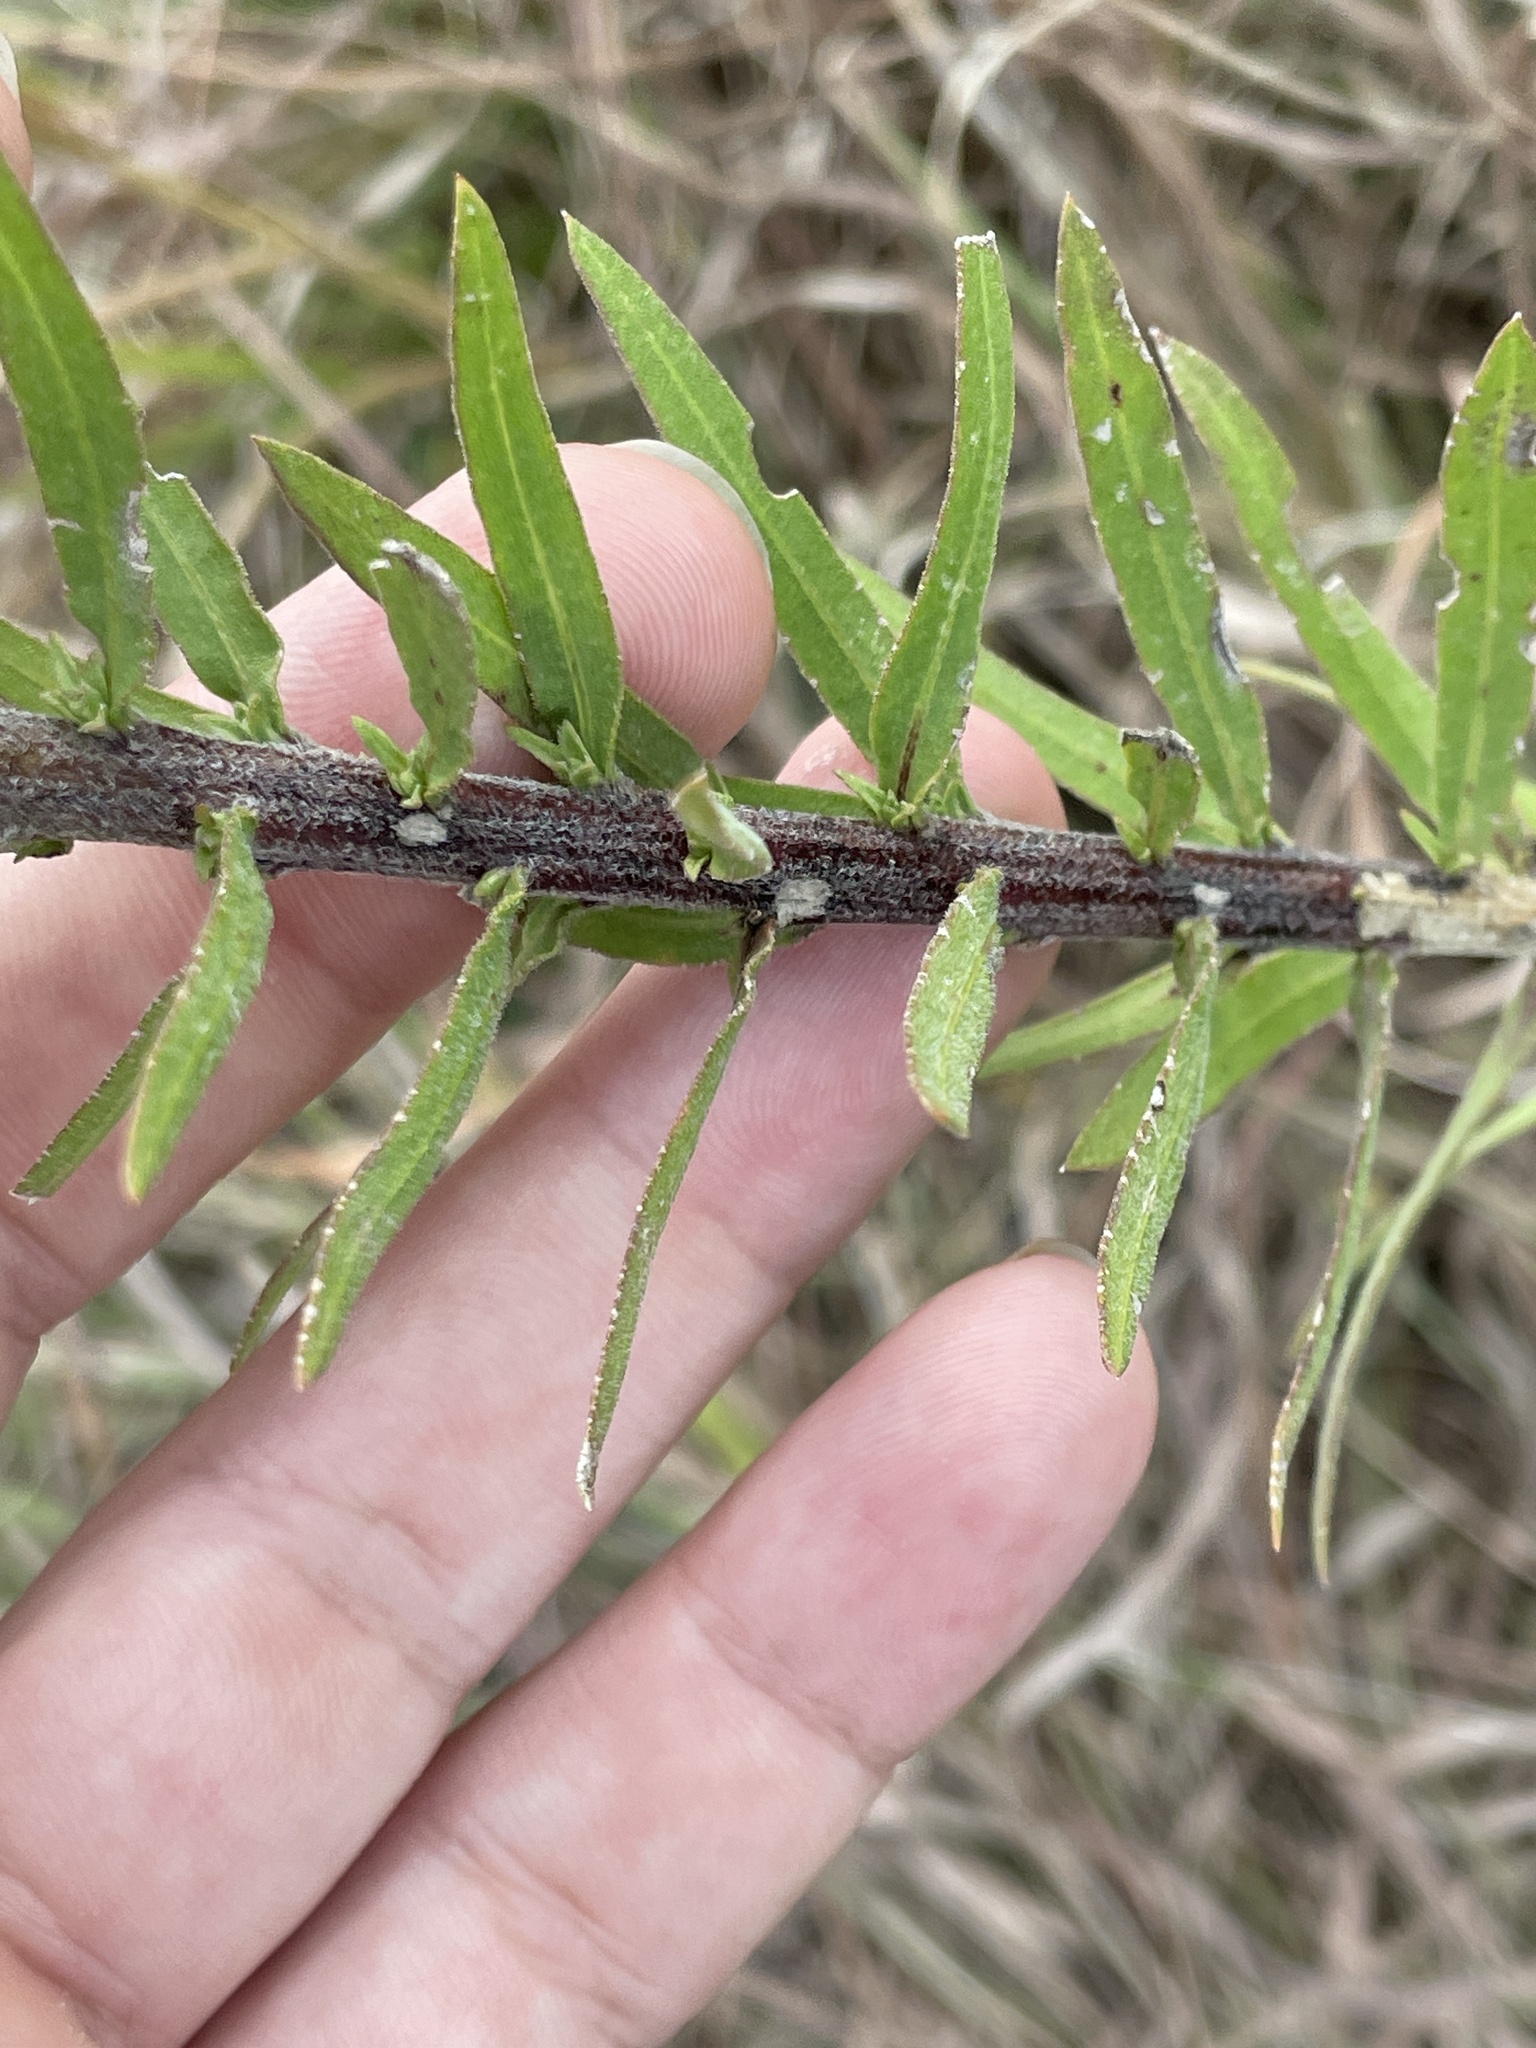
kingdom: Plantae
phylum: Tracheophyta
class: Magnoliopsida
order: Asterales
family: Asteraceae
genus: Liatris
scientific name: Liatris aspera
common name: Lacerate blazing-star
